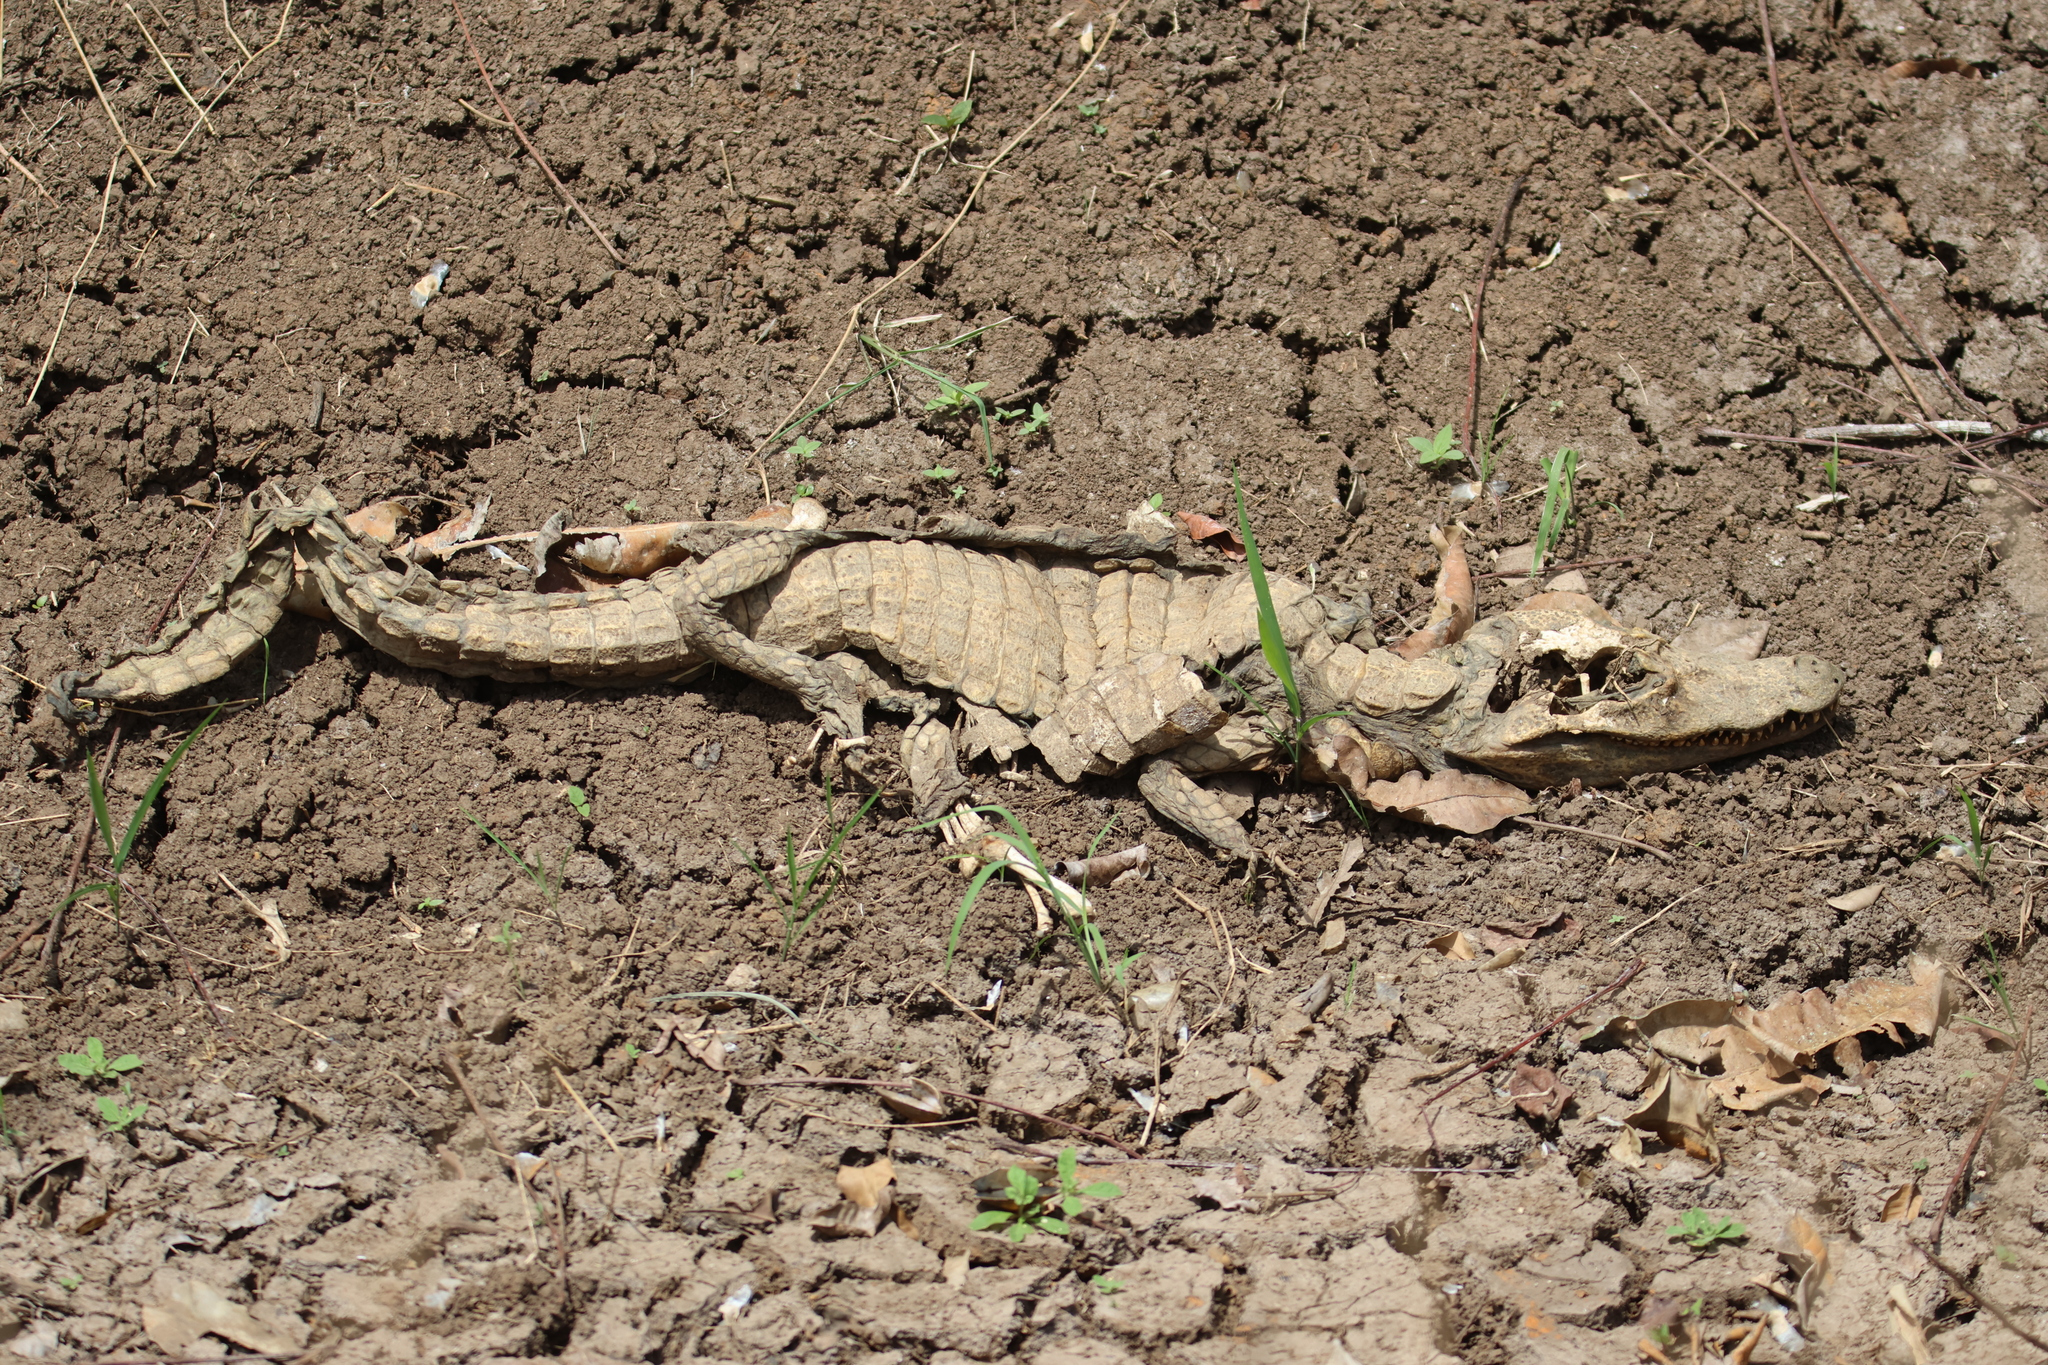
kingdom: Animalia
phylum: Chordata
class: Crocodylia
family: Alligatoridae
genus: Caiman
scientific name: Caiman crocodilus
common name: Common caiman
